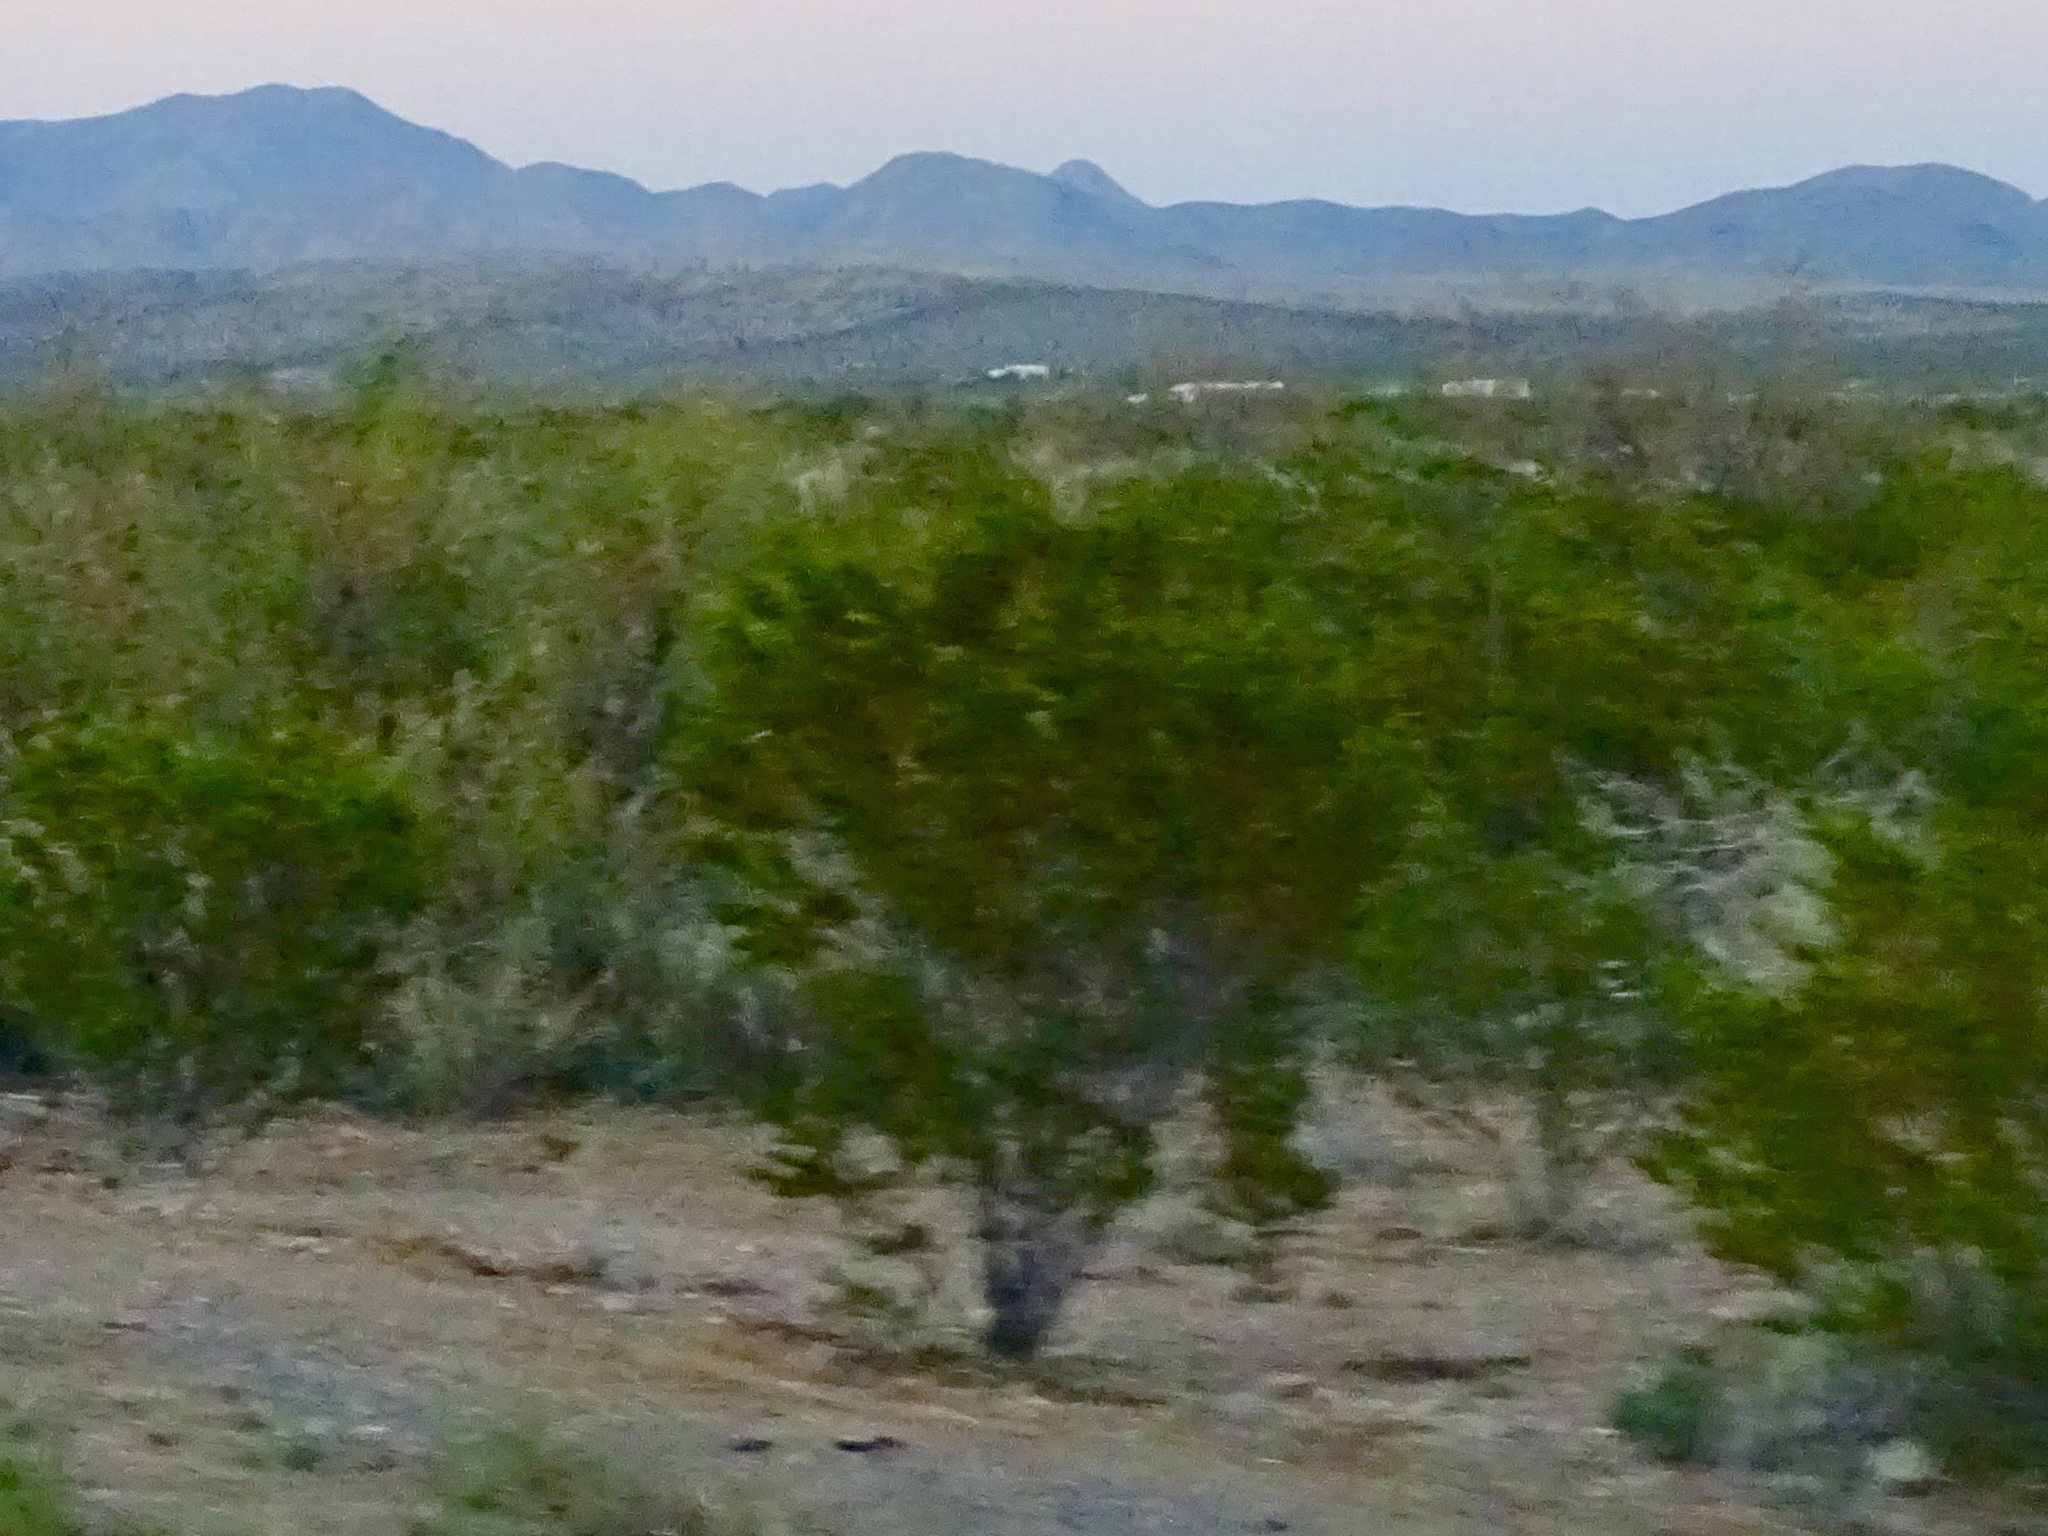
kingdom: Plantae
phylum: Tracheophyta
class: Magnoliopsida
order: Zygophyllales
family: Zygophyllaceae
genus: Larrea
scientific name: Larrea tridentata
